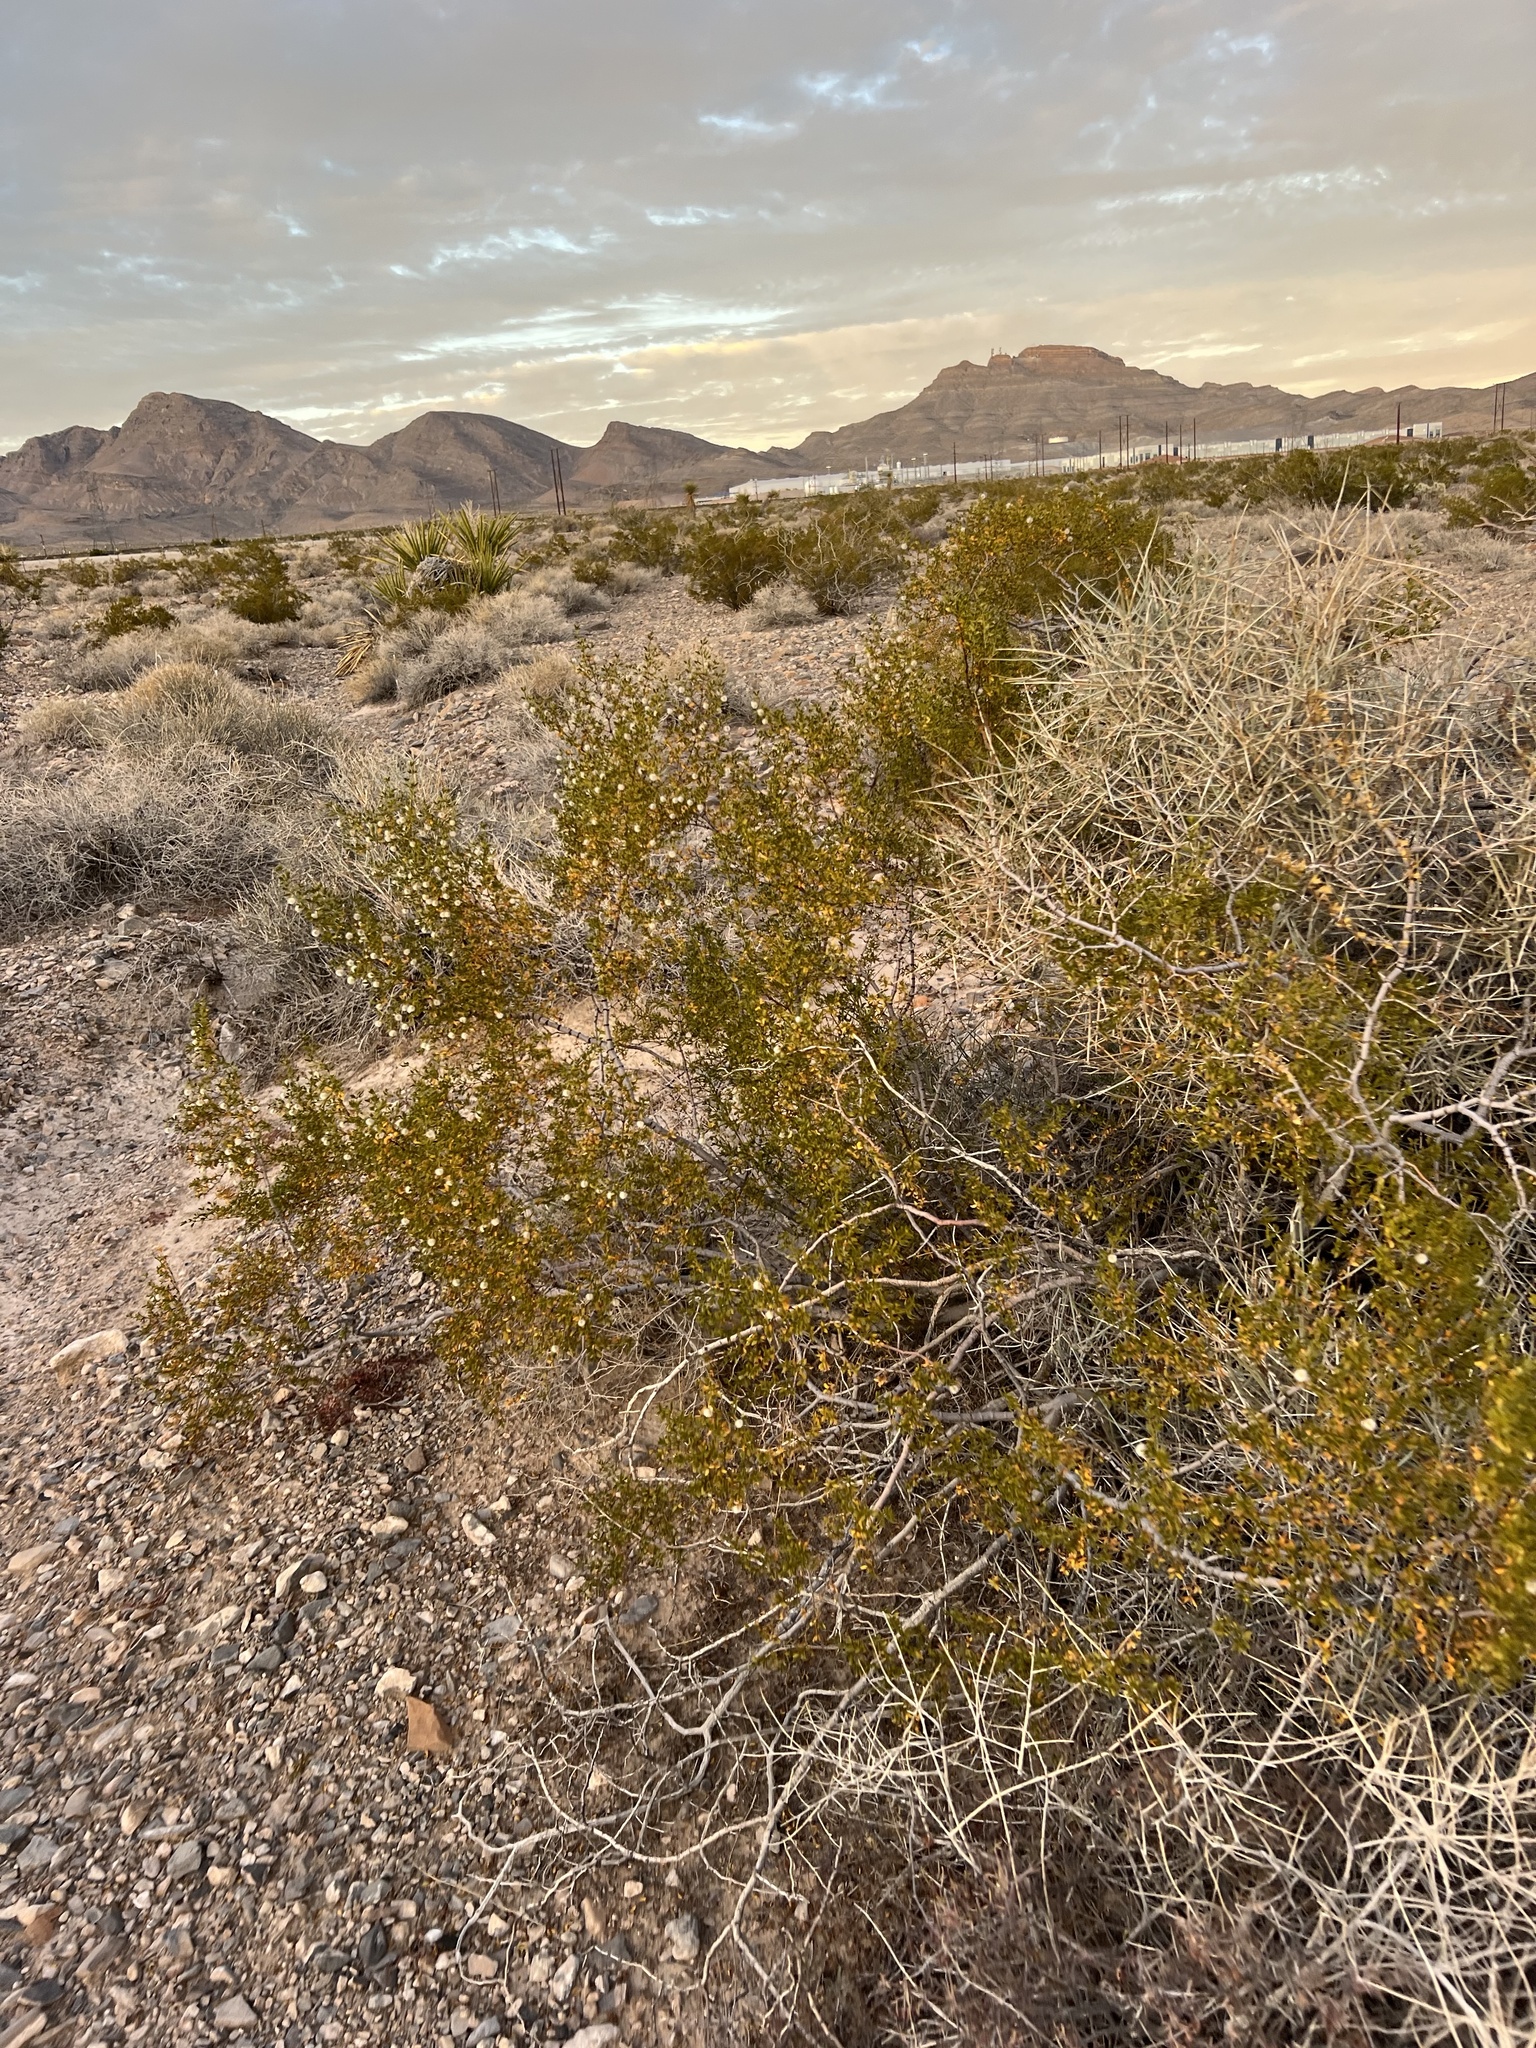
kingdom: Plantae
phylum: Tracheophyta
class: Magnoliopsida
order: Zygophyllales
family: Zygophyllaceae
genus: Larrea
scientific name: Larrea tridentata
